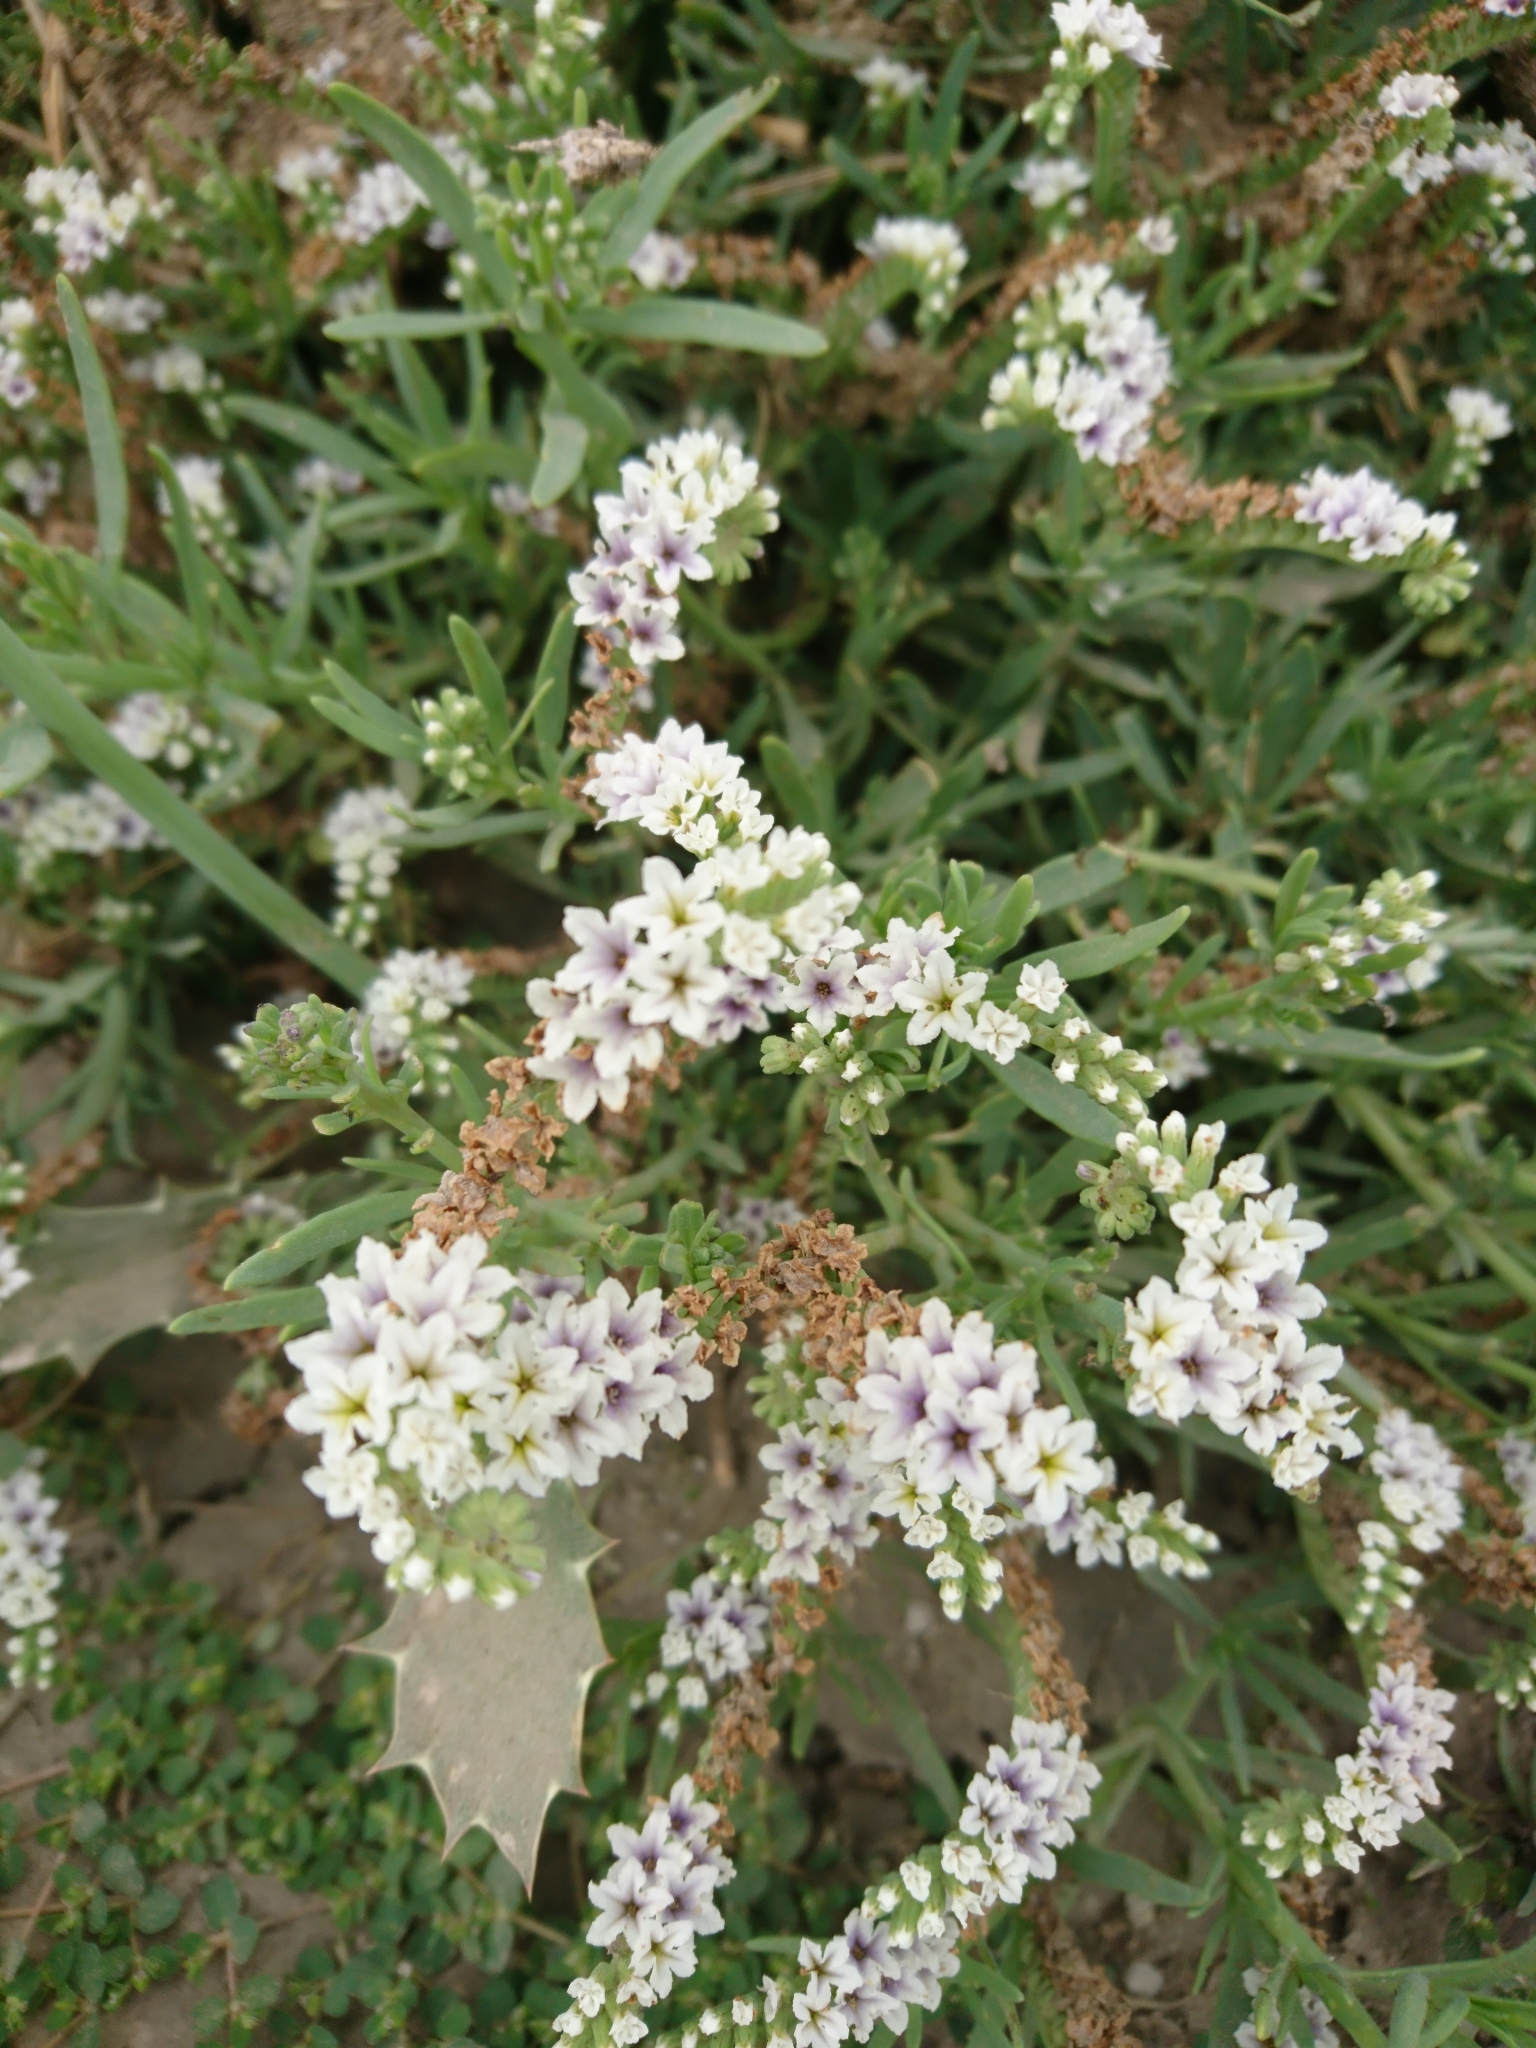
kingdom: Plantae
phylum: Tracheophyta
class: Magnoliopsida
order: Boraginales
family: Heliotropiaceae
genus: Heliotropium
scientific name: Heliotropium curassavicum
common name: Seaside heliotrope
